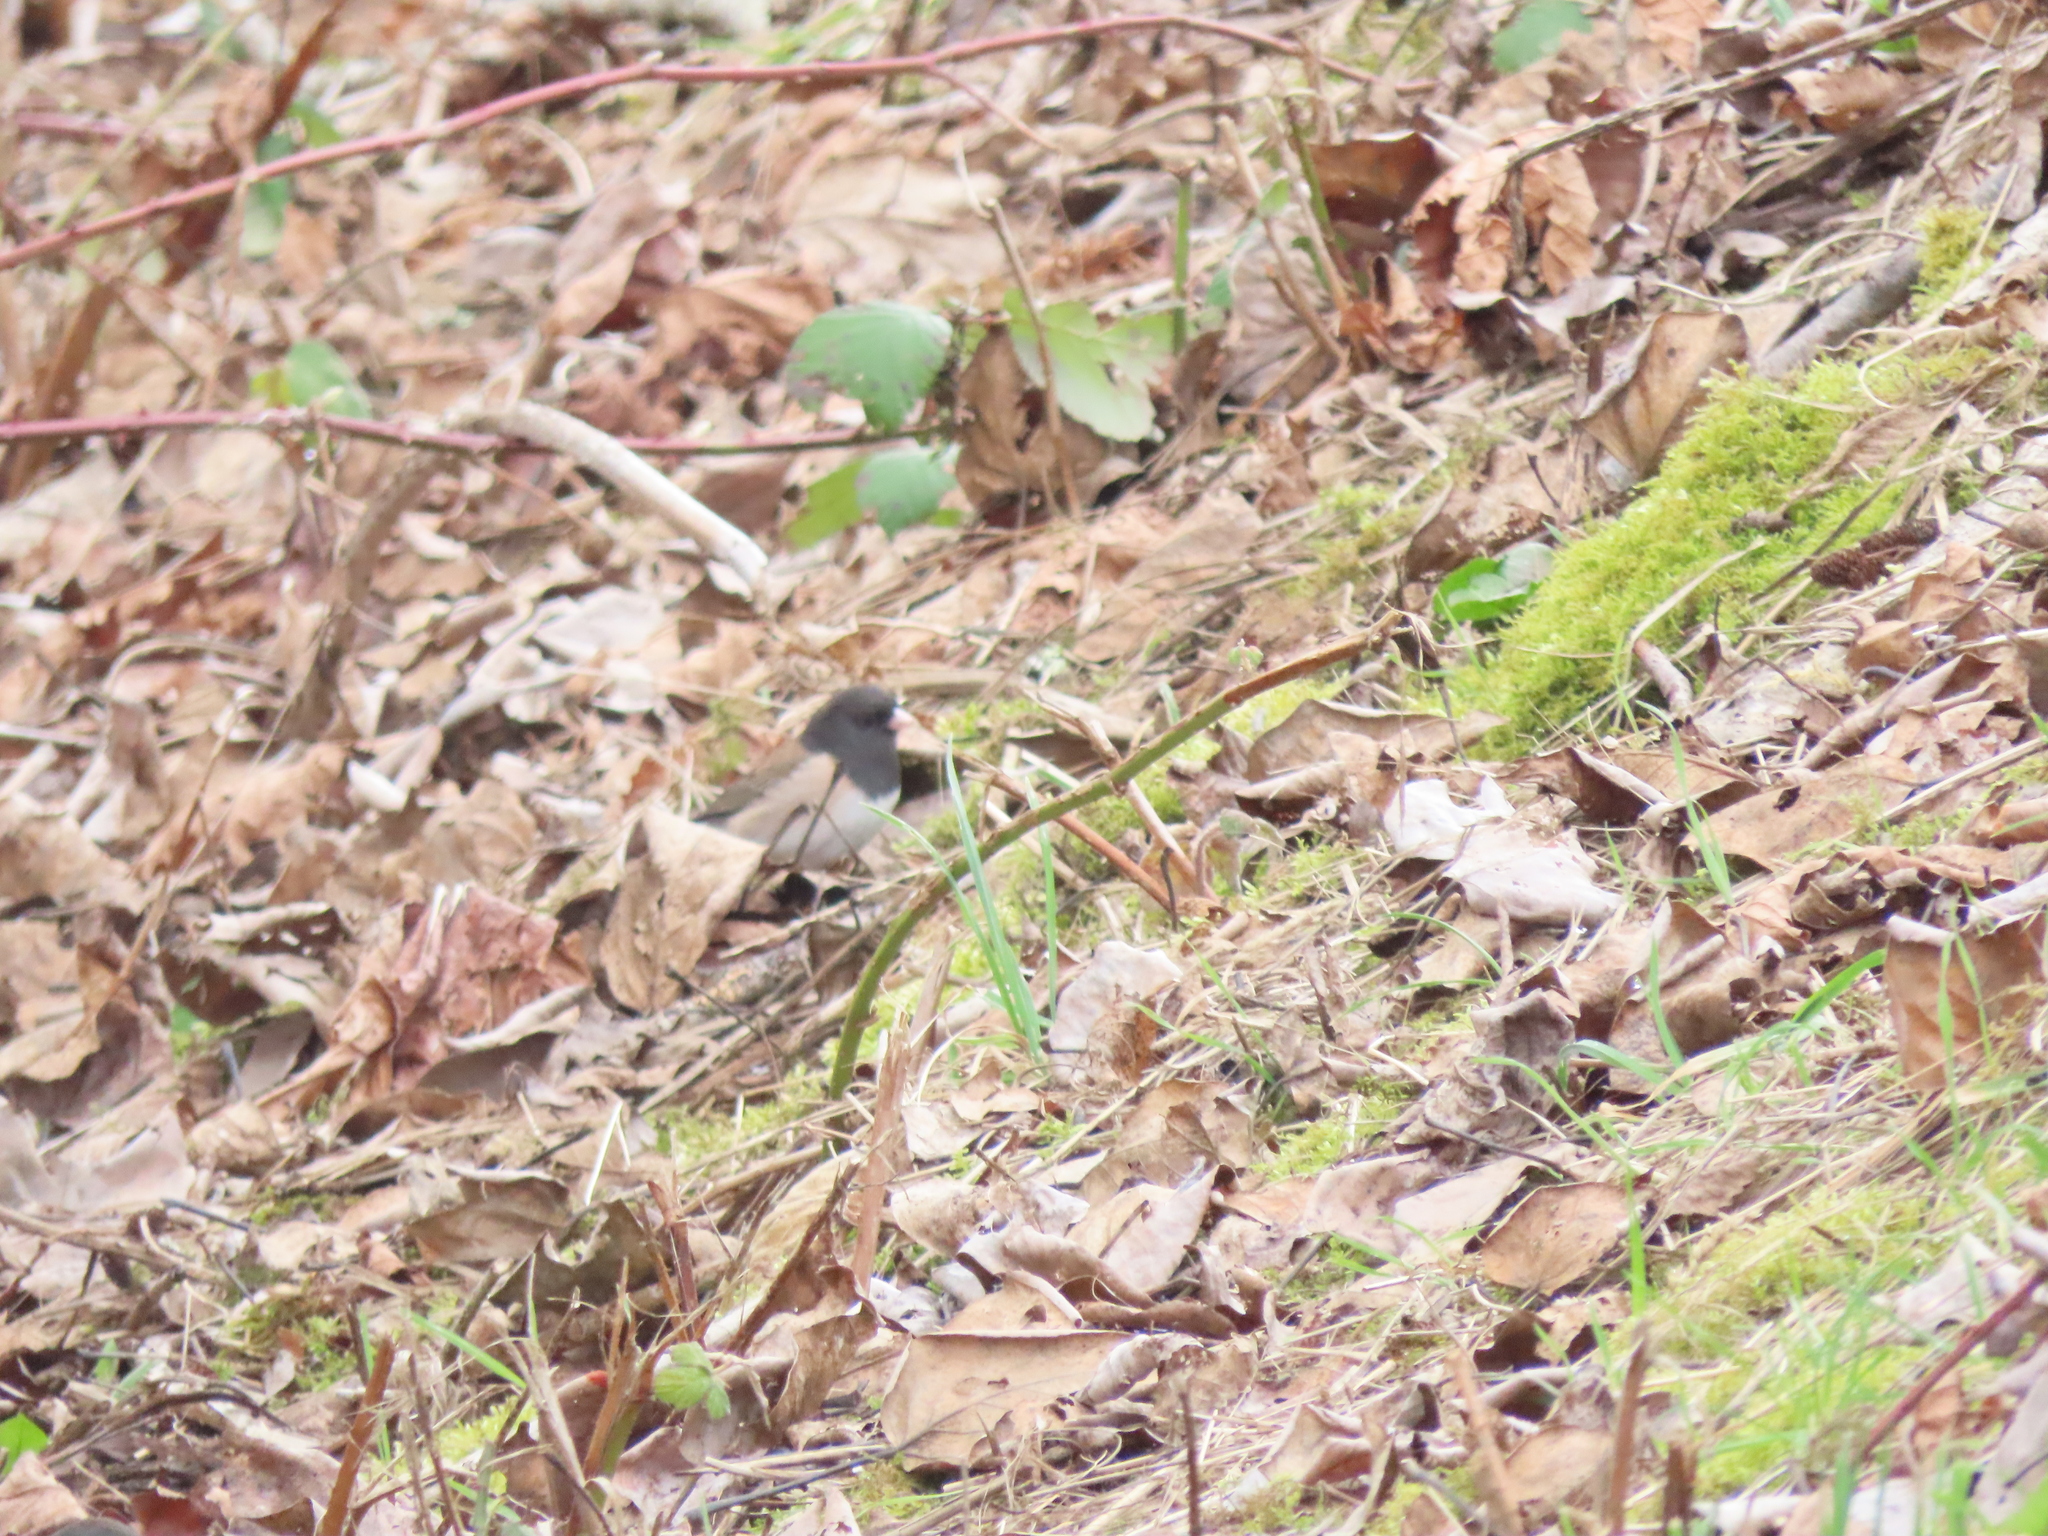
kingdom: Animalia
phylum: Chordata
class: Aves
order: Passeriformes
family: Passerellidae
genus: Junco
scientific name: Junco hyemalis
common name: Dark-eyed junco
